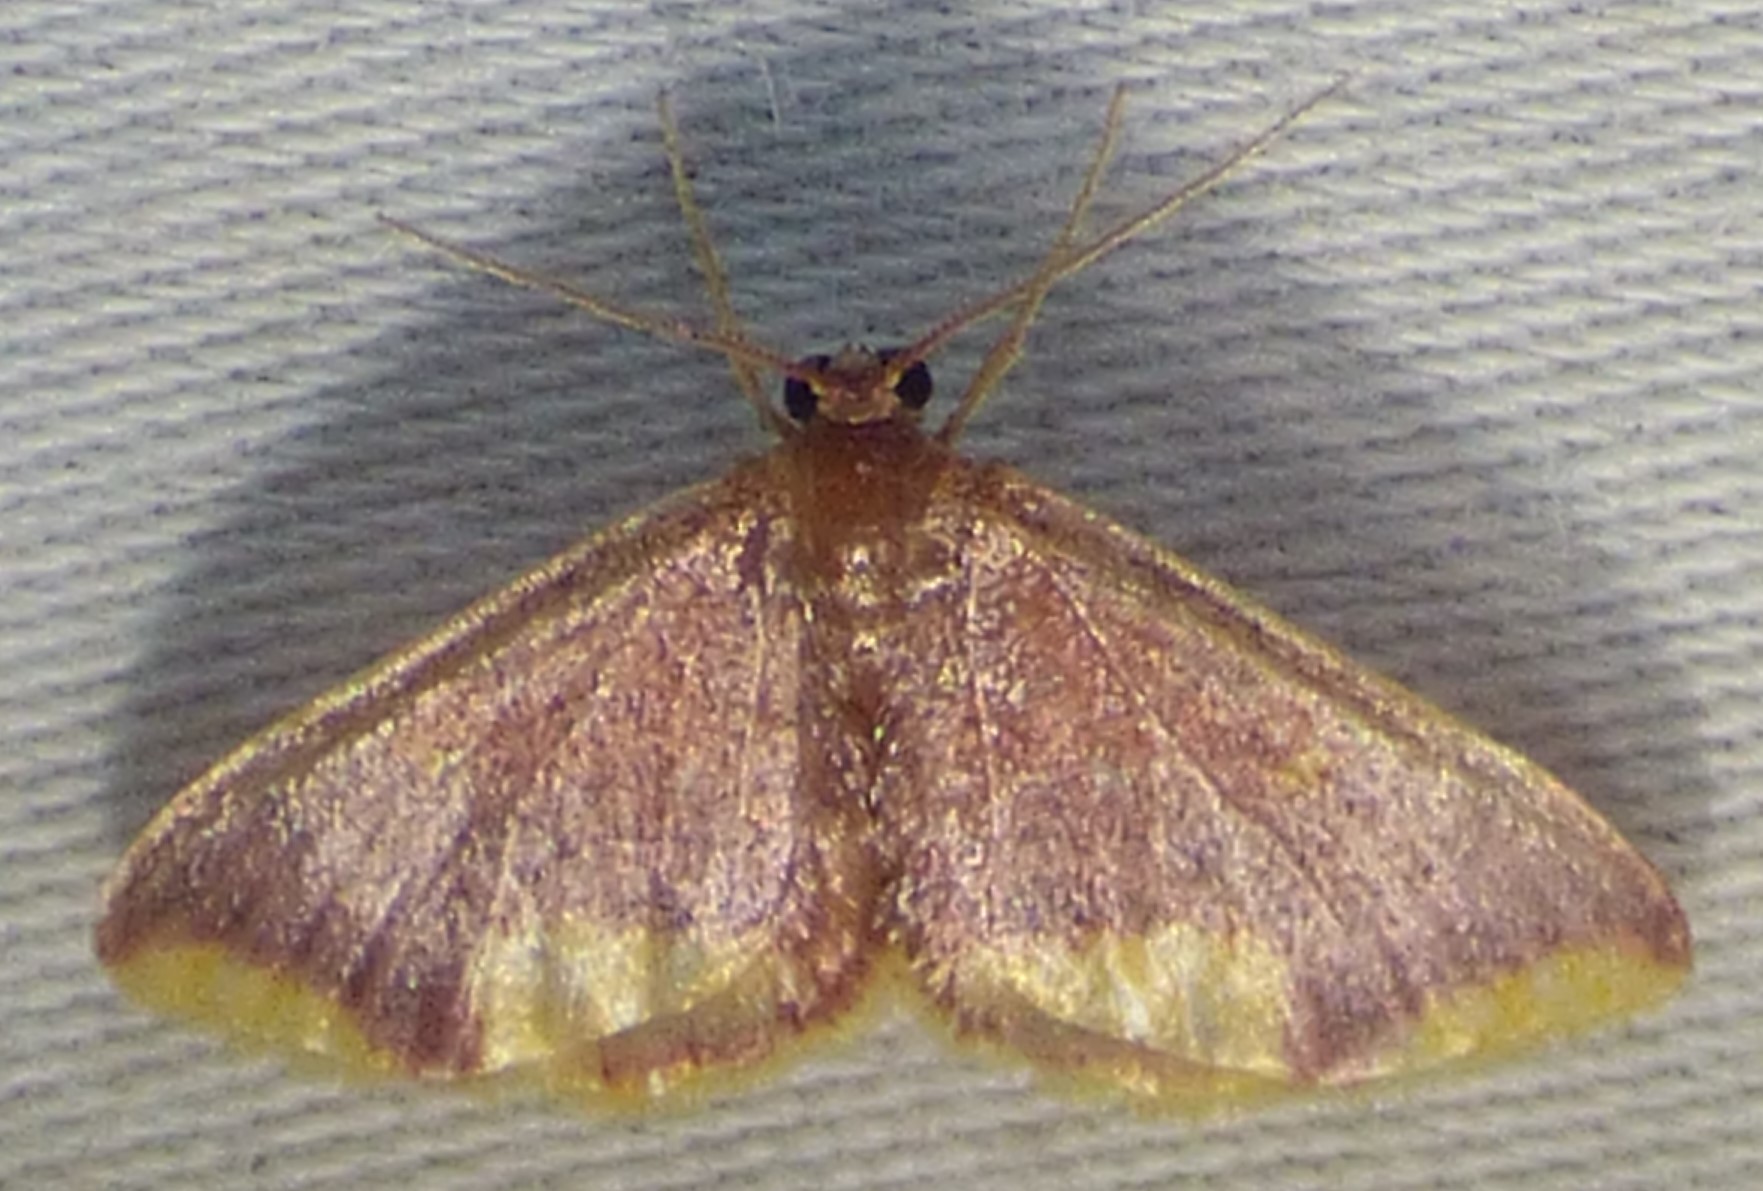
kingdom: Animalia
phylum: Arthropoda
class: Insecta
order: Lepidoptera
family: Geometridae
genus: Lophosis
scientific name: Lophosis labeculata
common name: Stained lophosis moth
